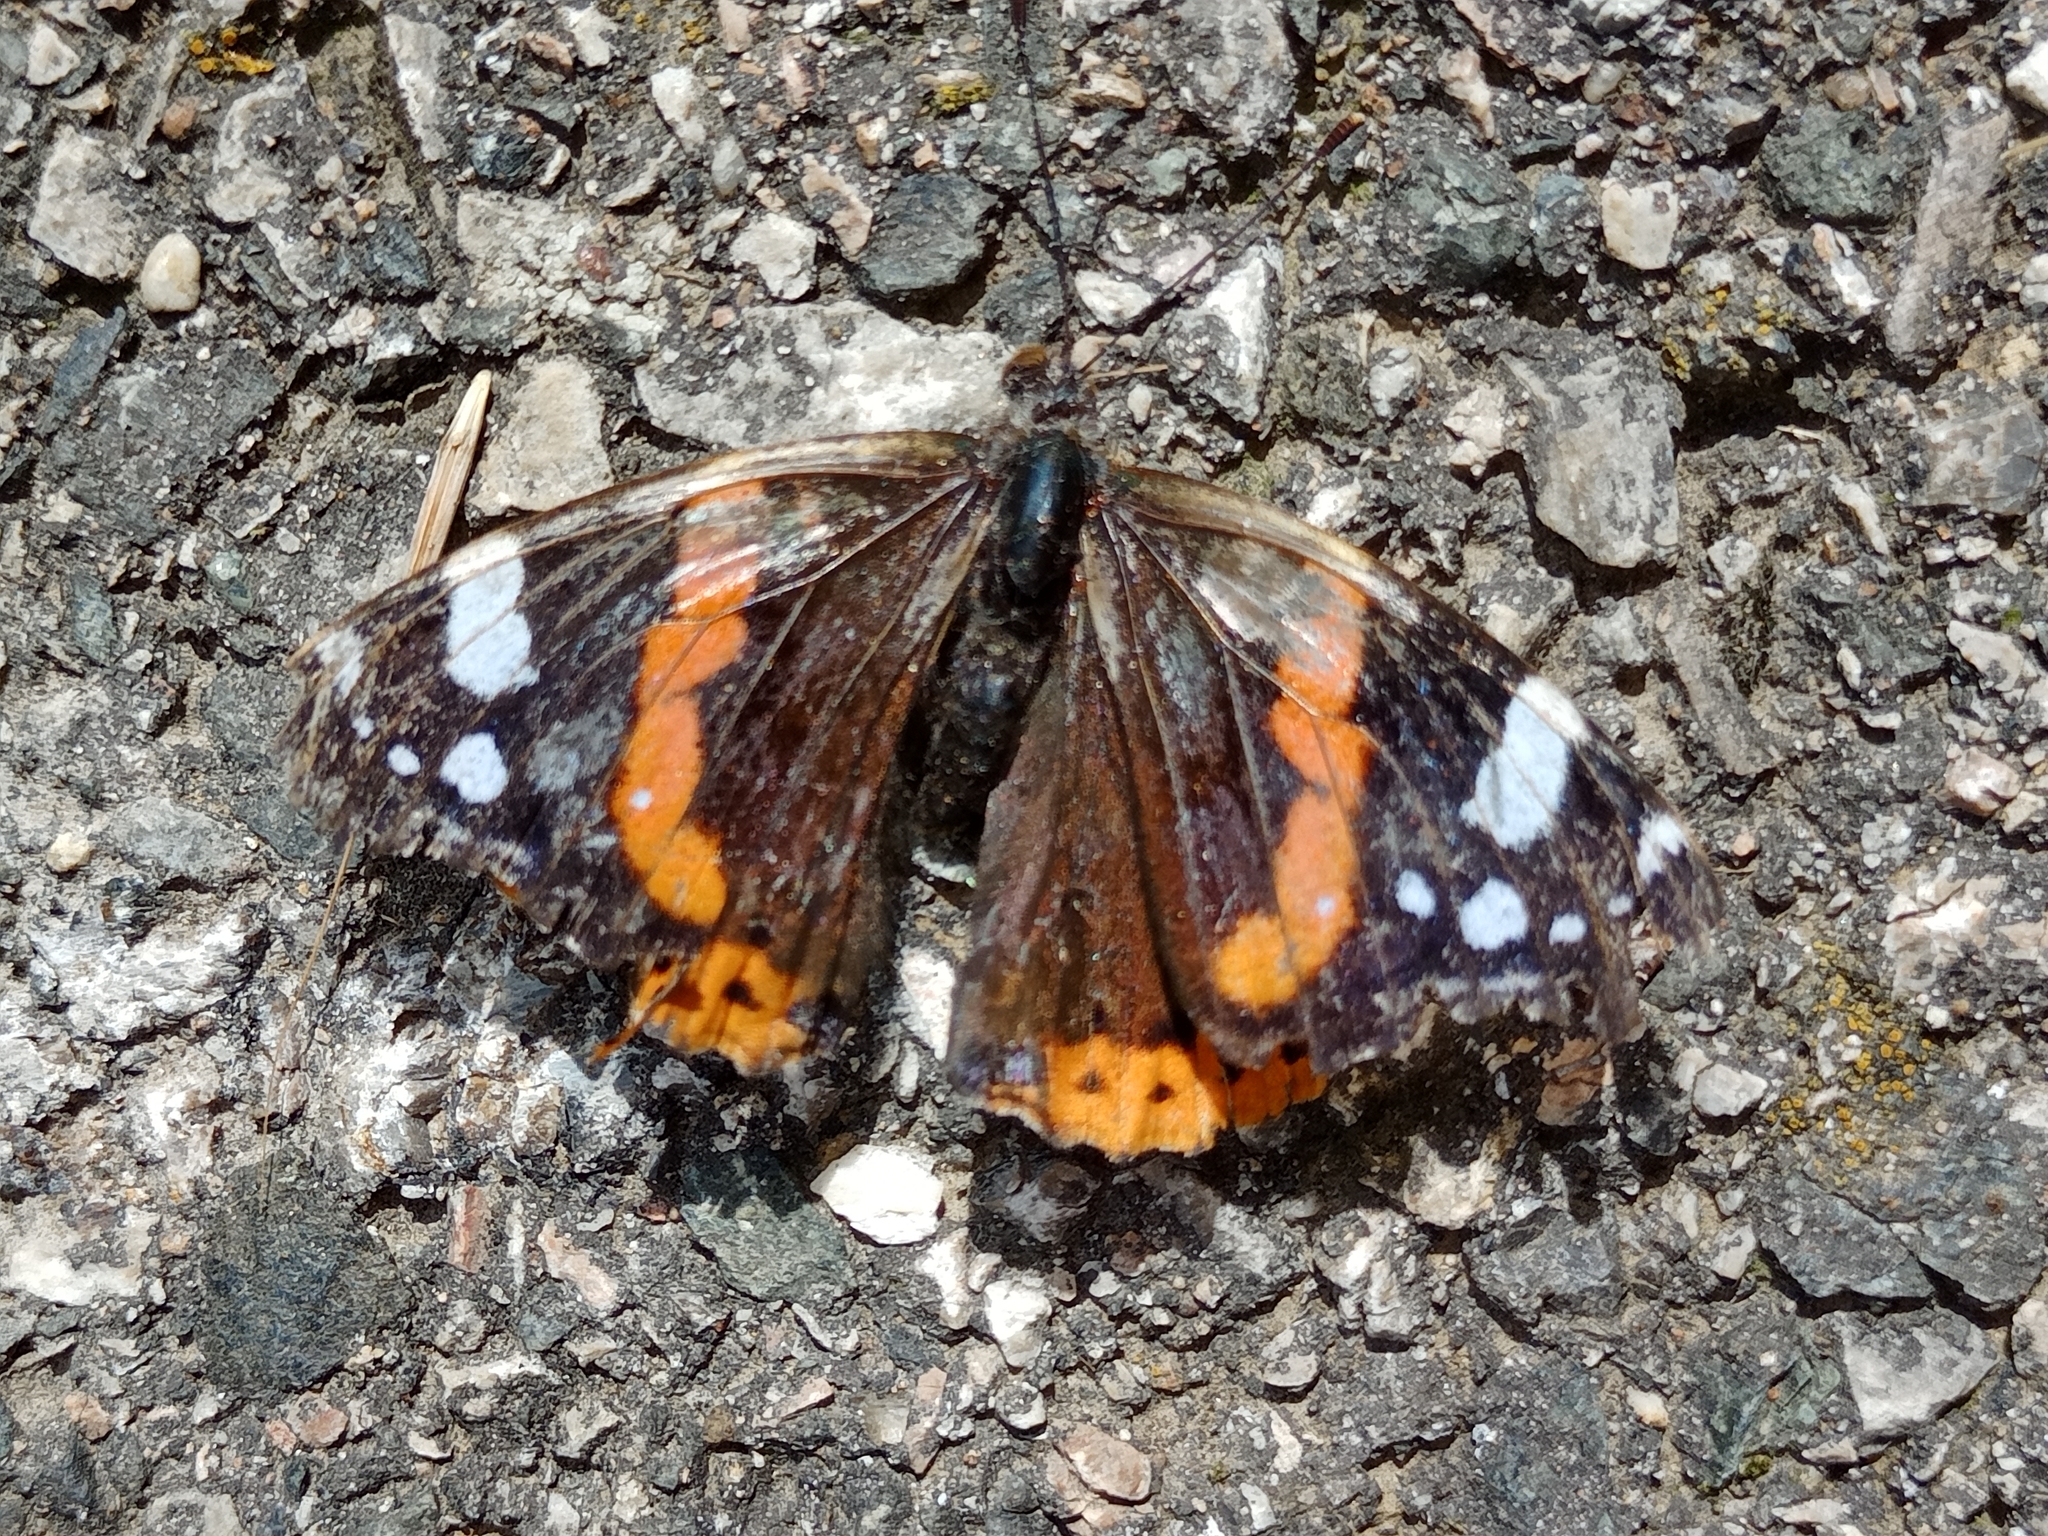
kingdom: Animalia
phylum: Arthropoda
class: Insecta
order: Lepidoptera
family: Nymphalidae
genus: Vanessa
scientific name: Vanessa atalanta
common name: Red admiral
